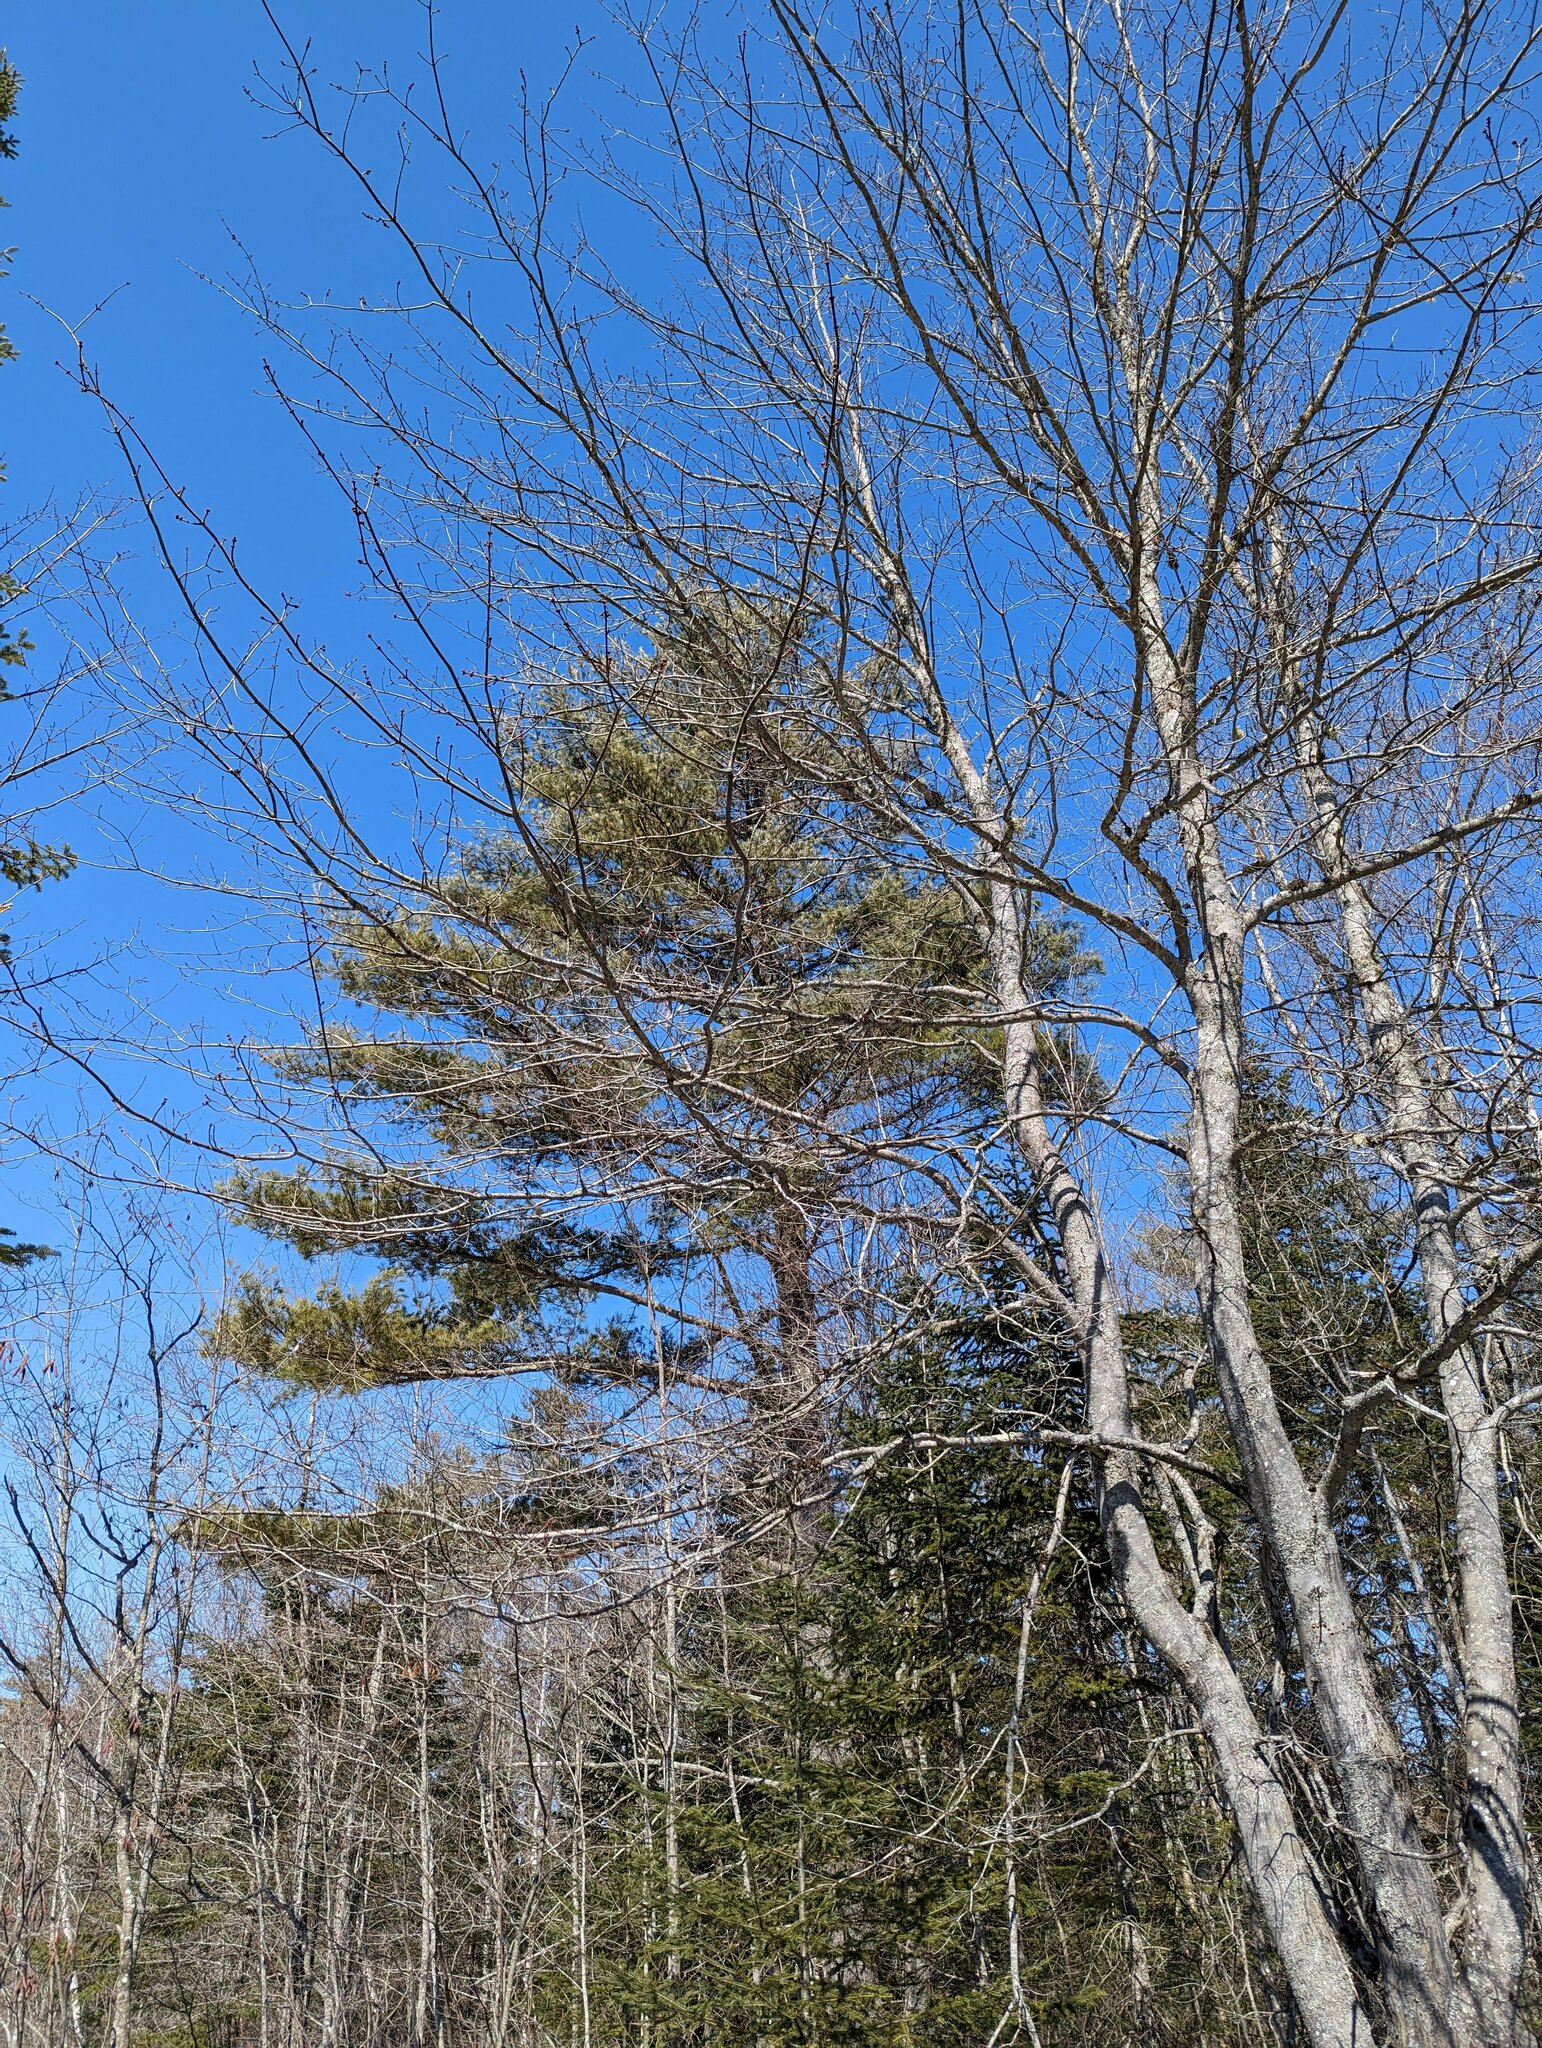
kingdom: Plantae
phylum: Tracheophyta
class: Pinopsida
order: Pinales
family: Pinaceae
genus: Pinus
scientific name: Pinus strobus
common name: Weymouth pine
